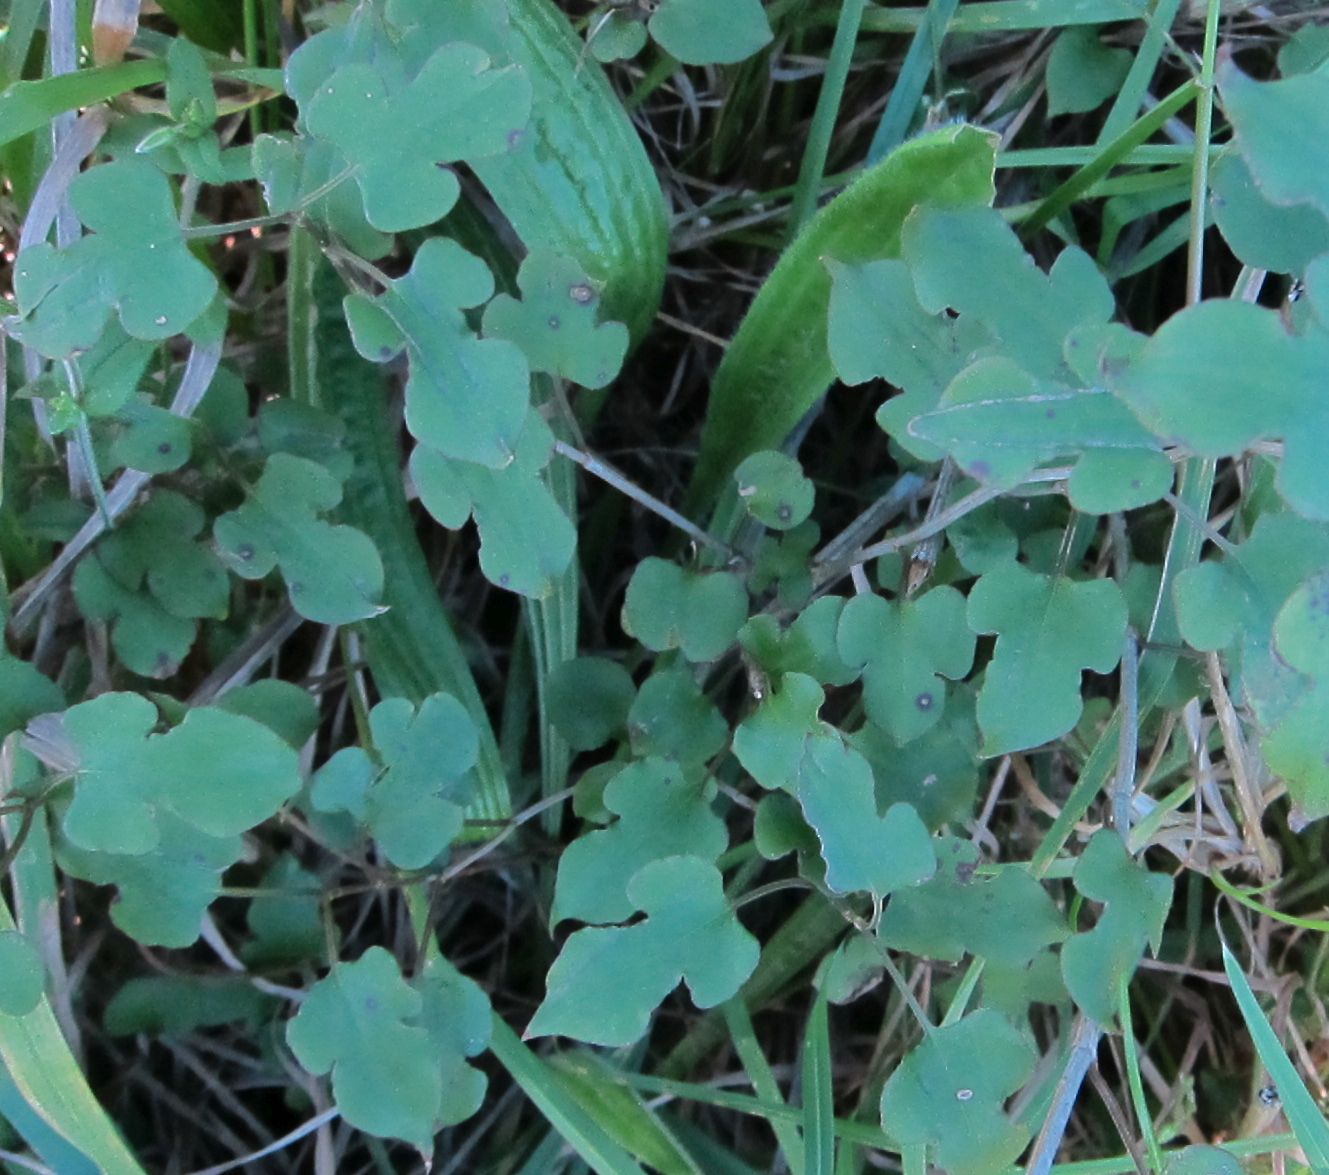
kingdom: Plantae
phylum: Tracheophyta
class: Magnoliopsida
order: Caryophyllales
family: Polygonaceae
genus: Muehlenbeckia
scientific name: Muehlenbeckia australis
